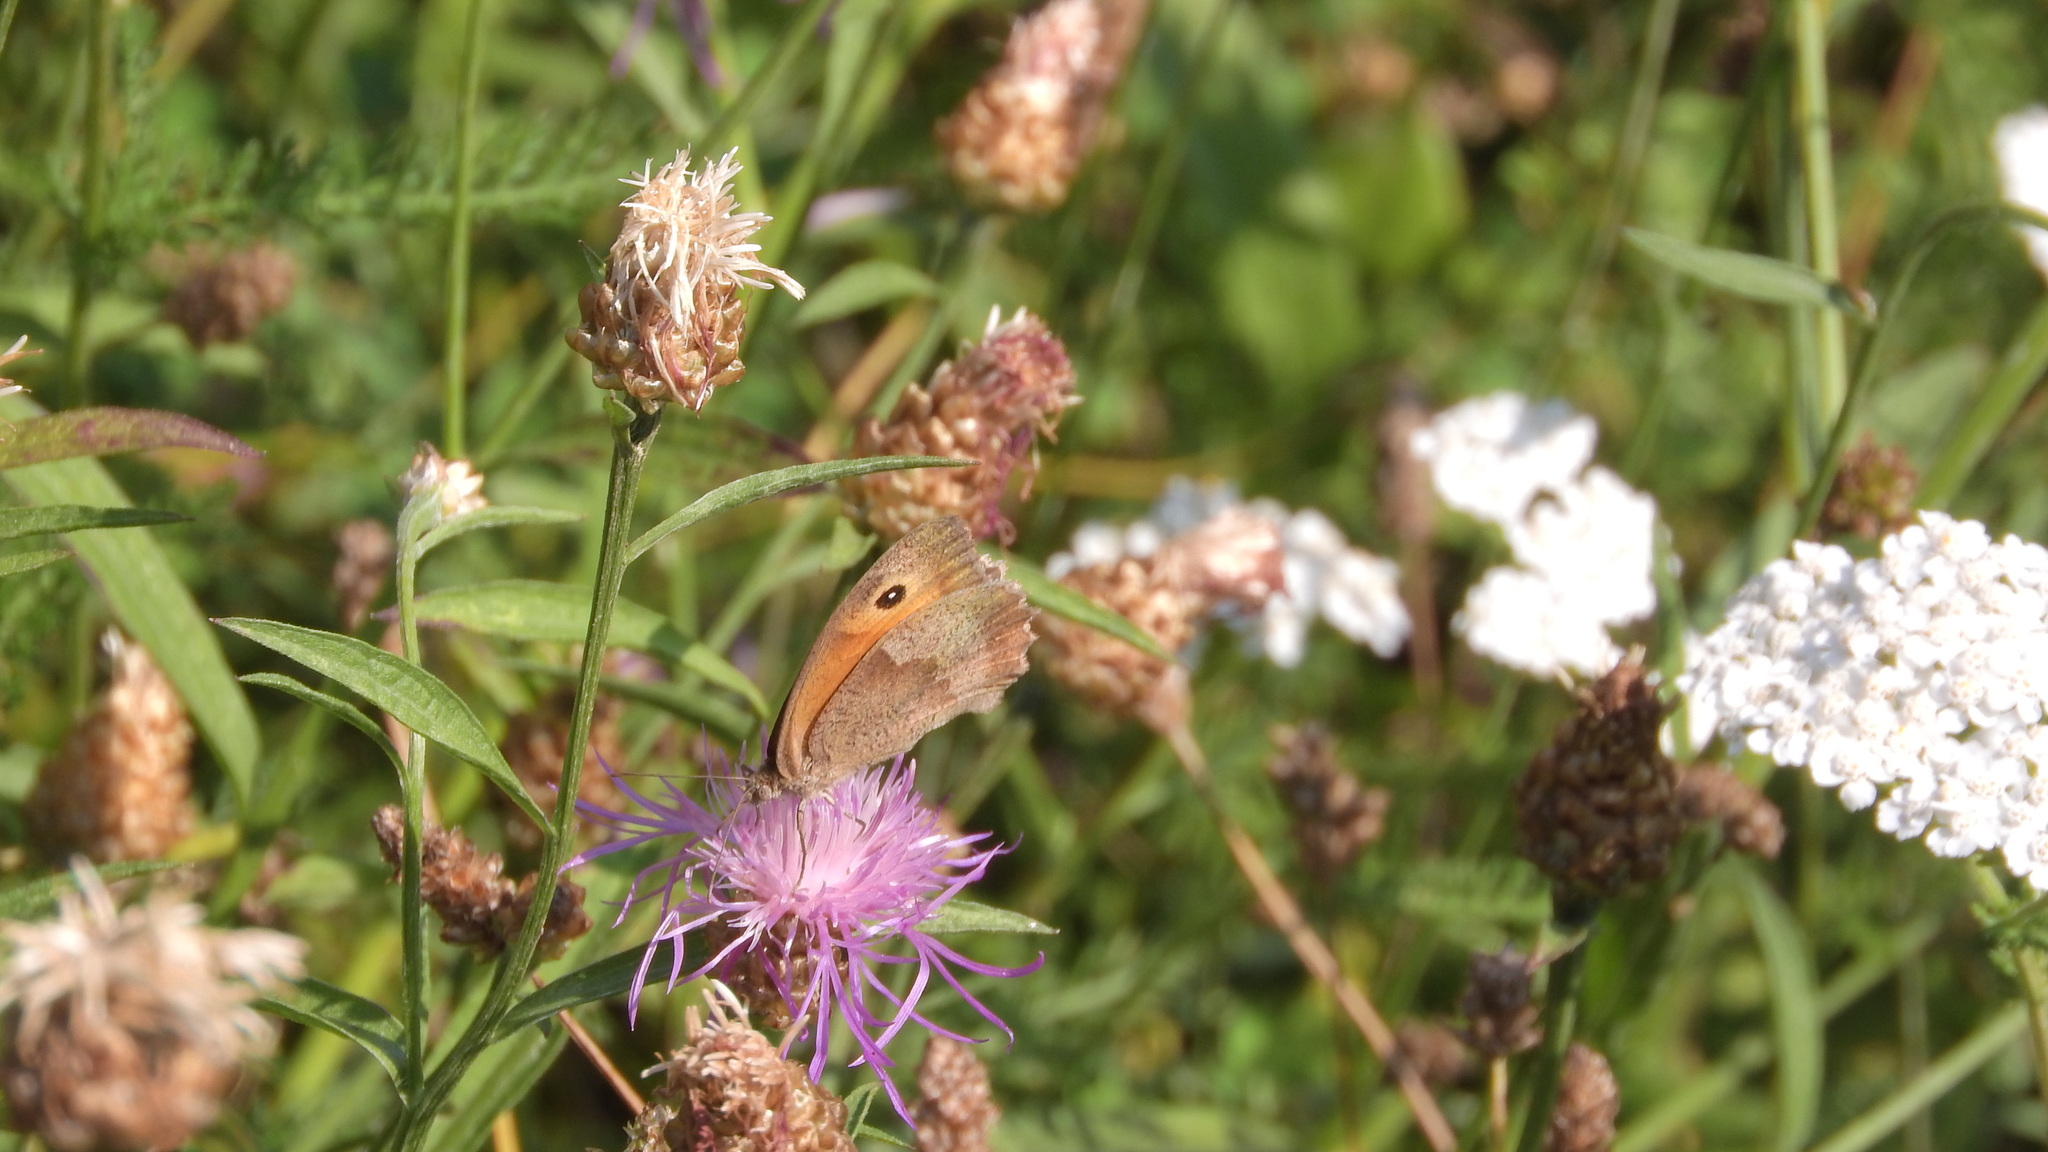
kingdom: Animalia
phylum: Arthropoda
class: Insecta
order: Lepidoptera
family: Nymphalidae
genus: Maniola
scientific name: Maniola jurtina
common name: Meadow brown
